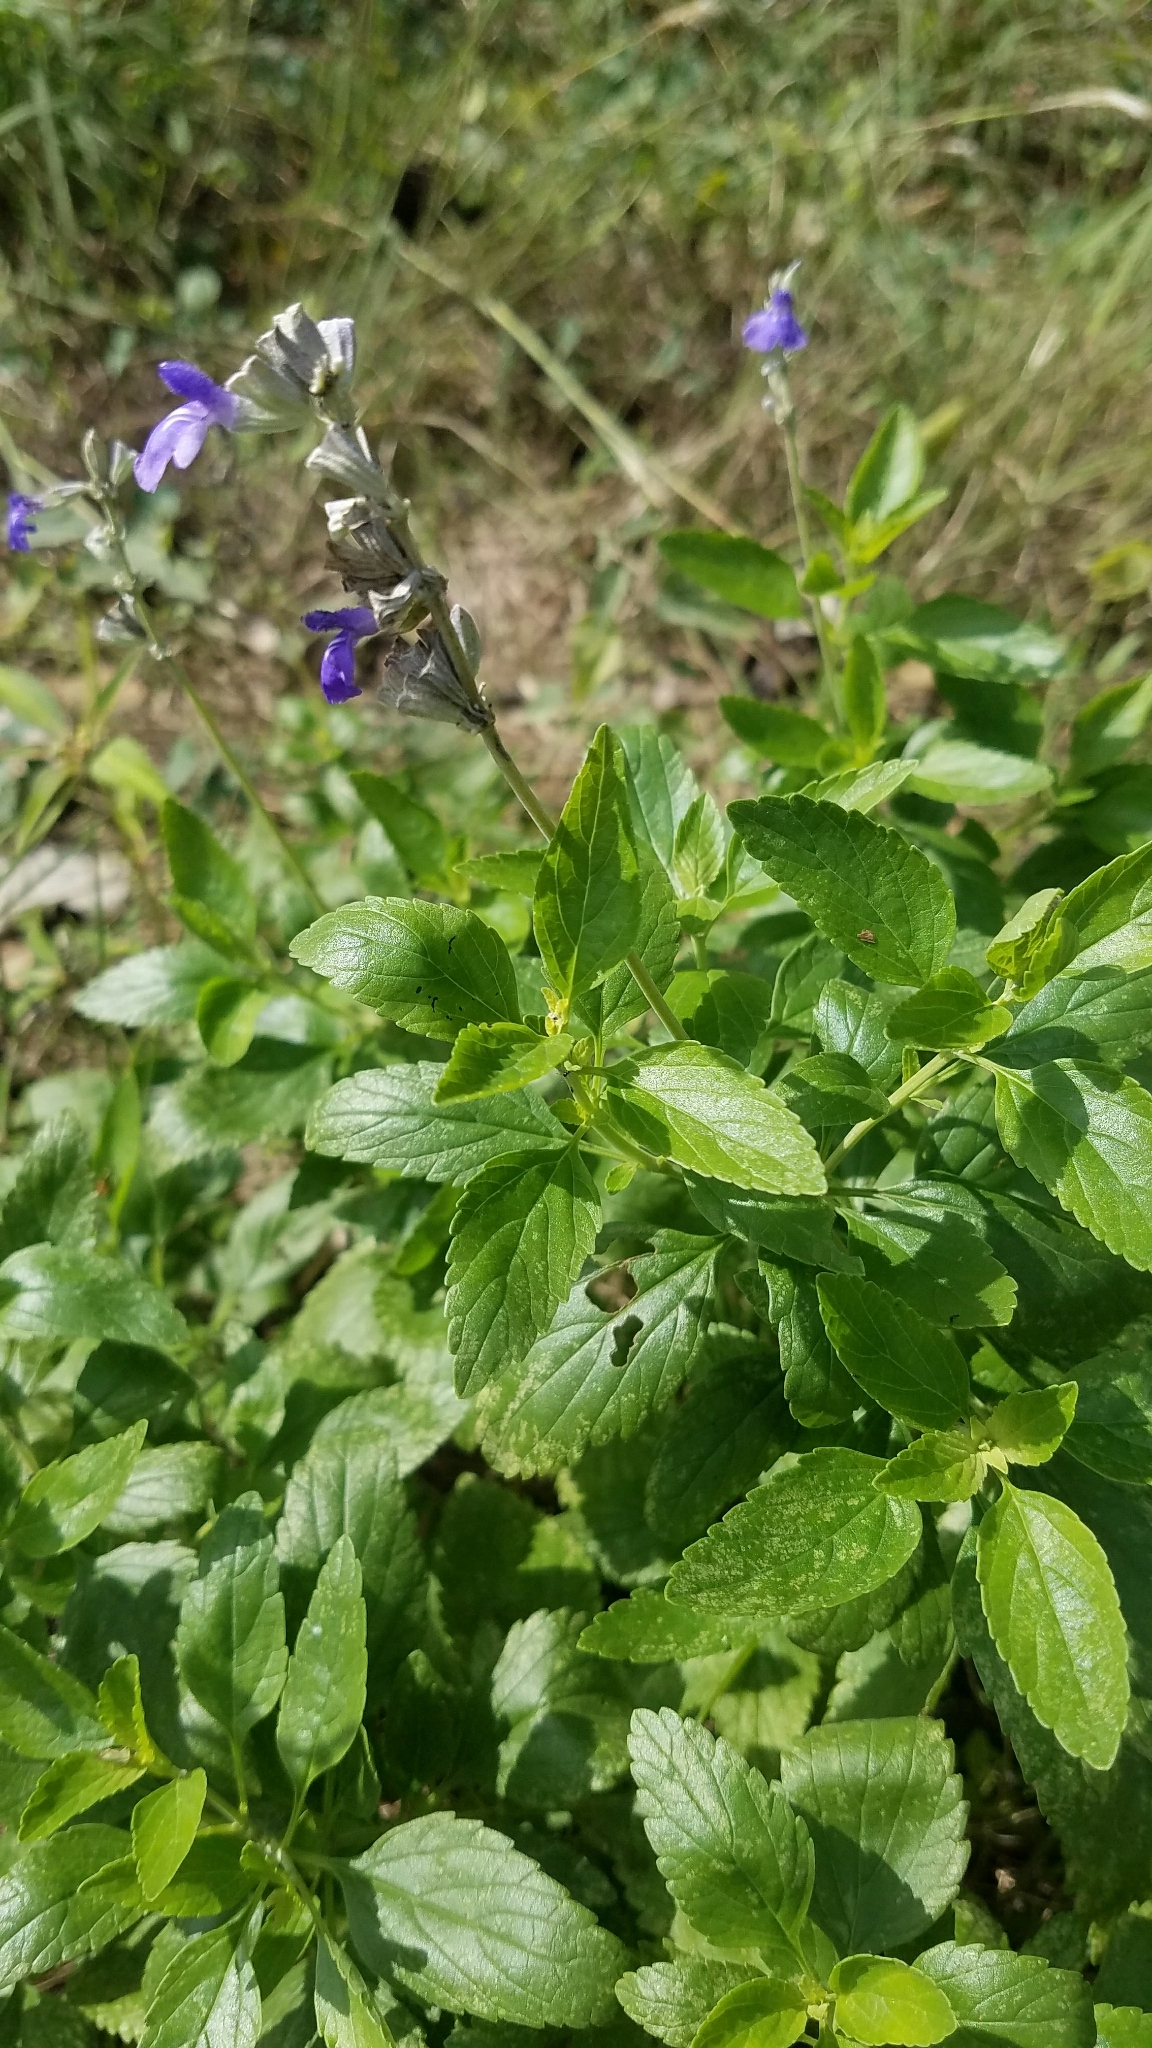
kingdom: Plantae
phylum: Tracheophyta
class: Magnoliopsida
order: Lamiales
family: Lamiaceae
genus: Salvia
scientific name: Salvia farinacea
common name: Mealy sage
